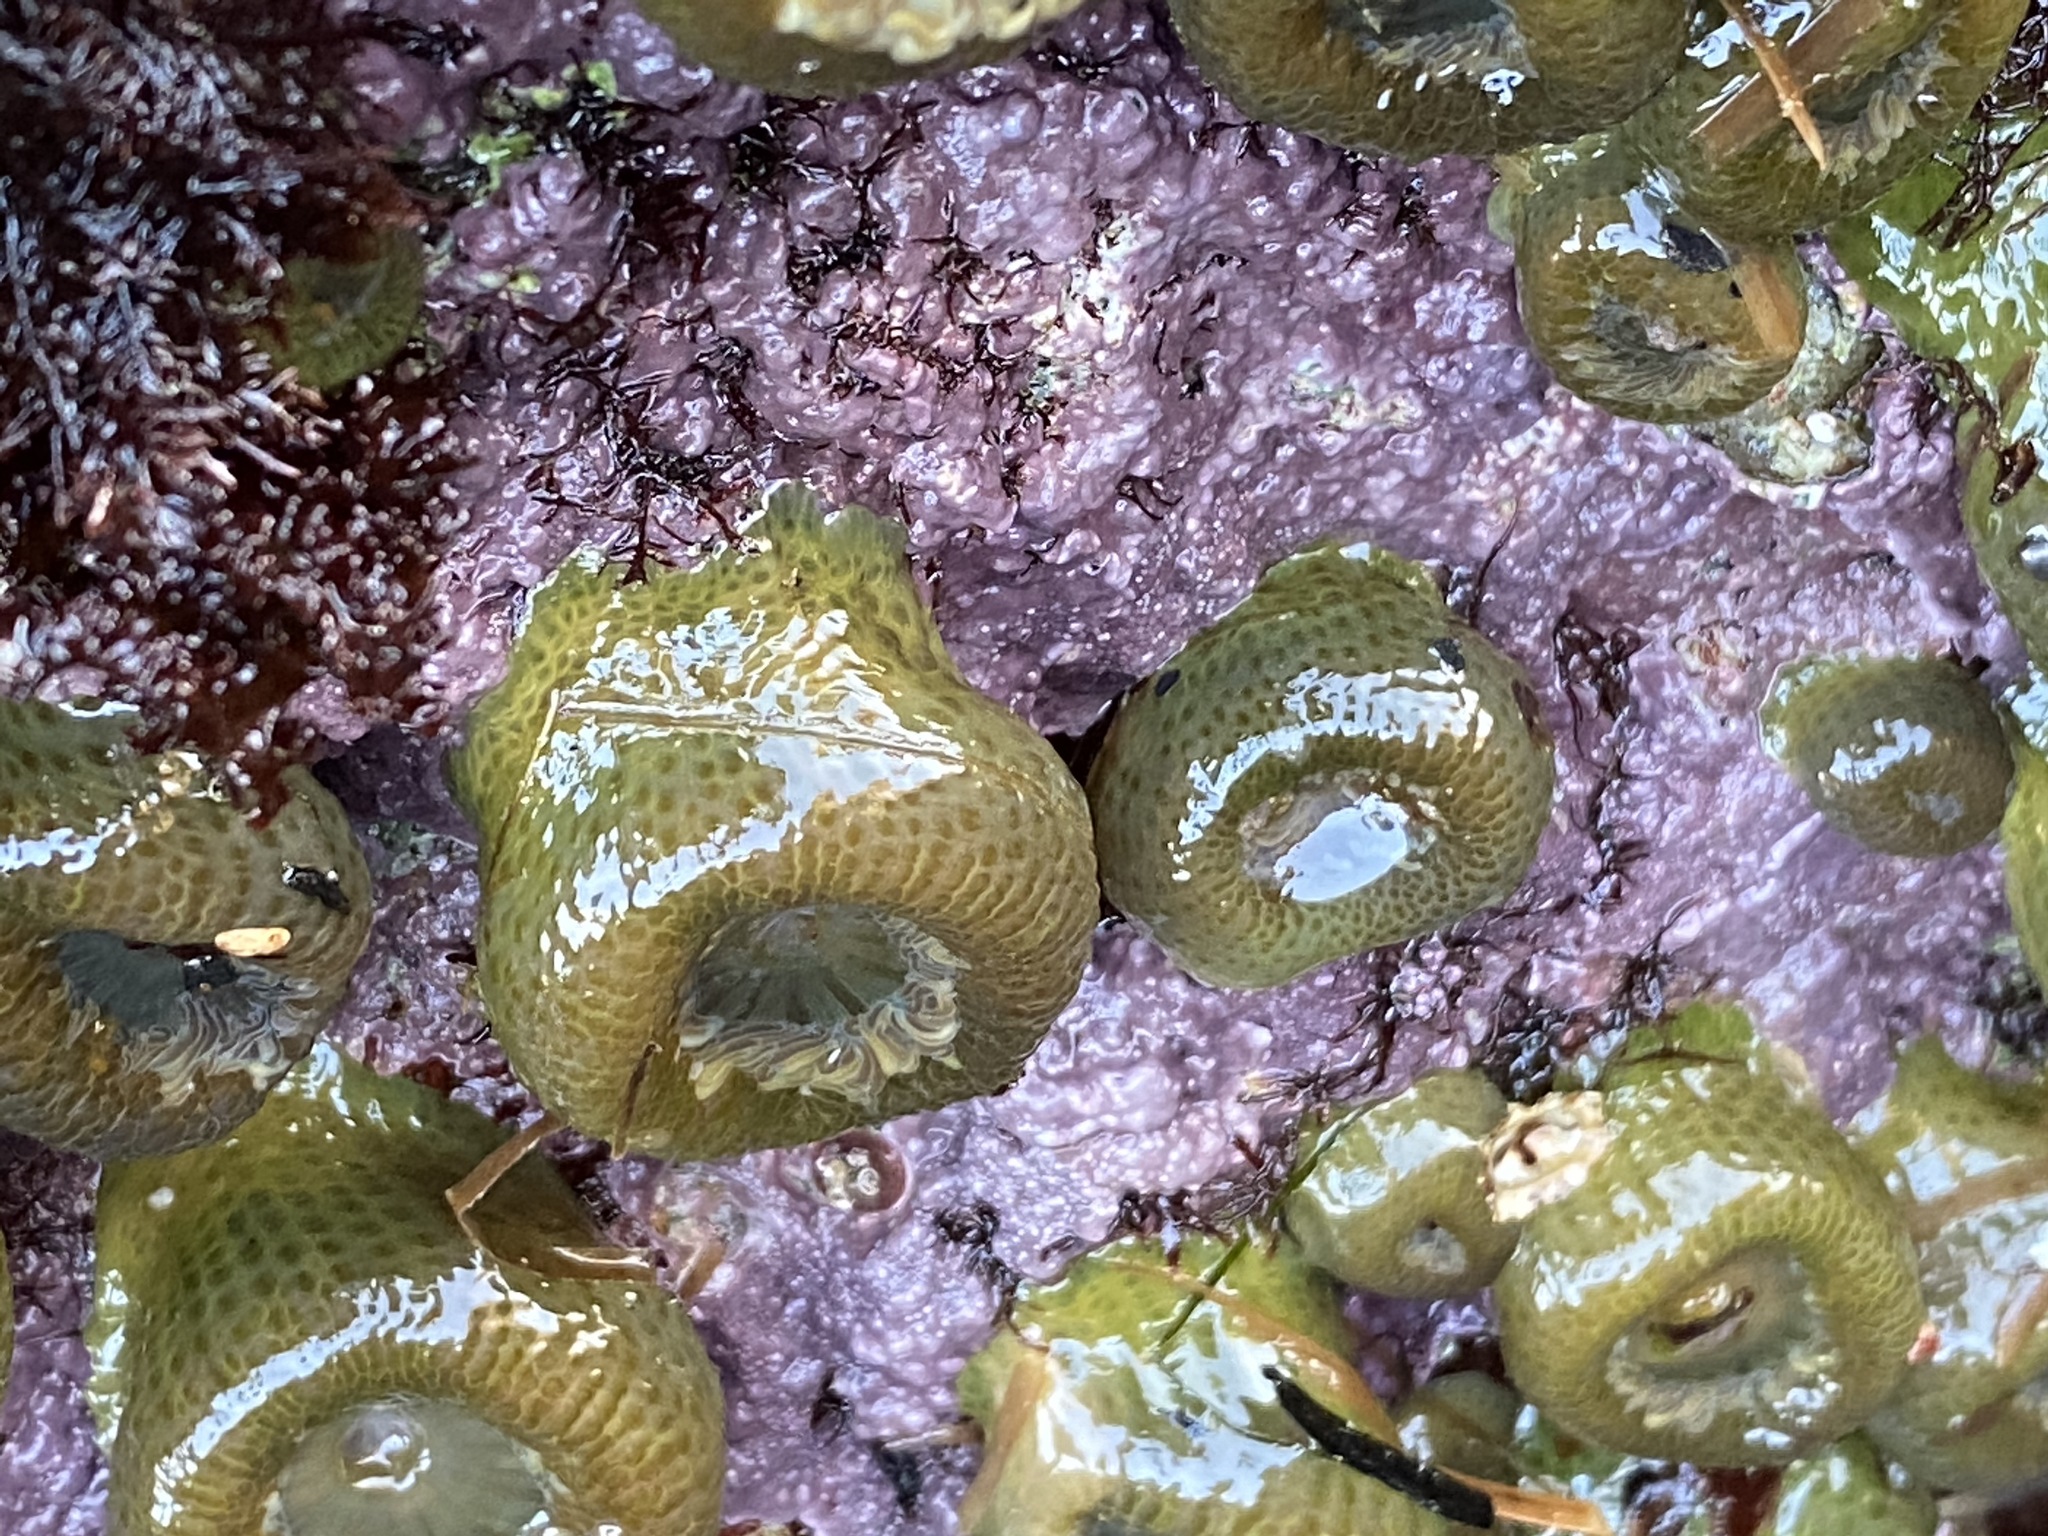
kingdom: Animalia
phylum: Cnidaria
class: Anthozoa
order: Actiniaria
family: Actiniidae
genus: Anthopleura
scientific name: Anthopleura elegantissima
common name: Clonal anemone
